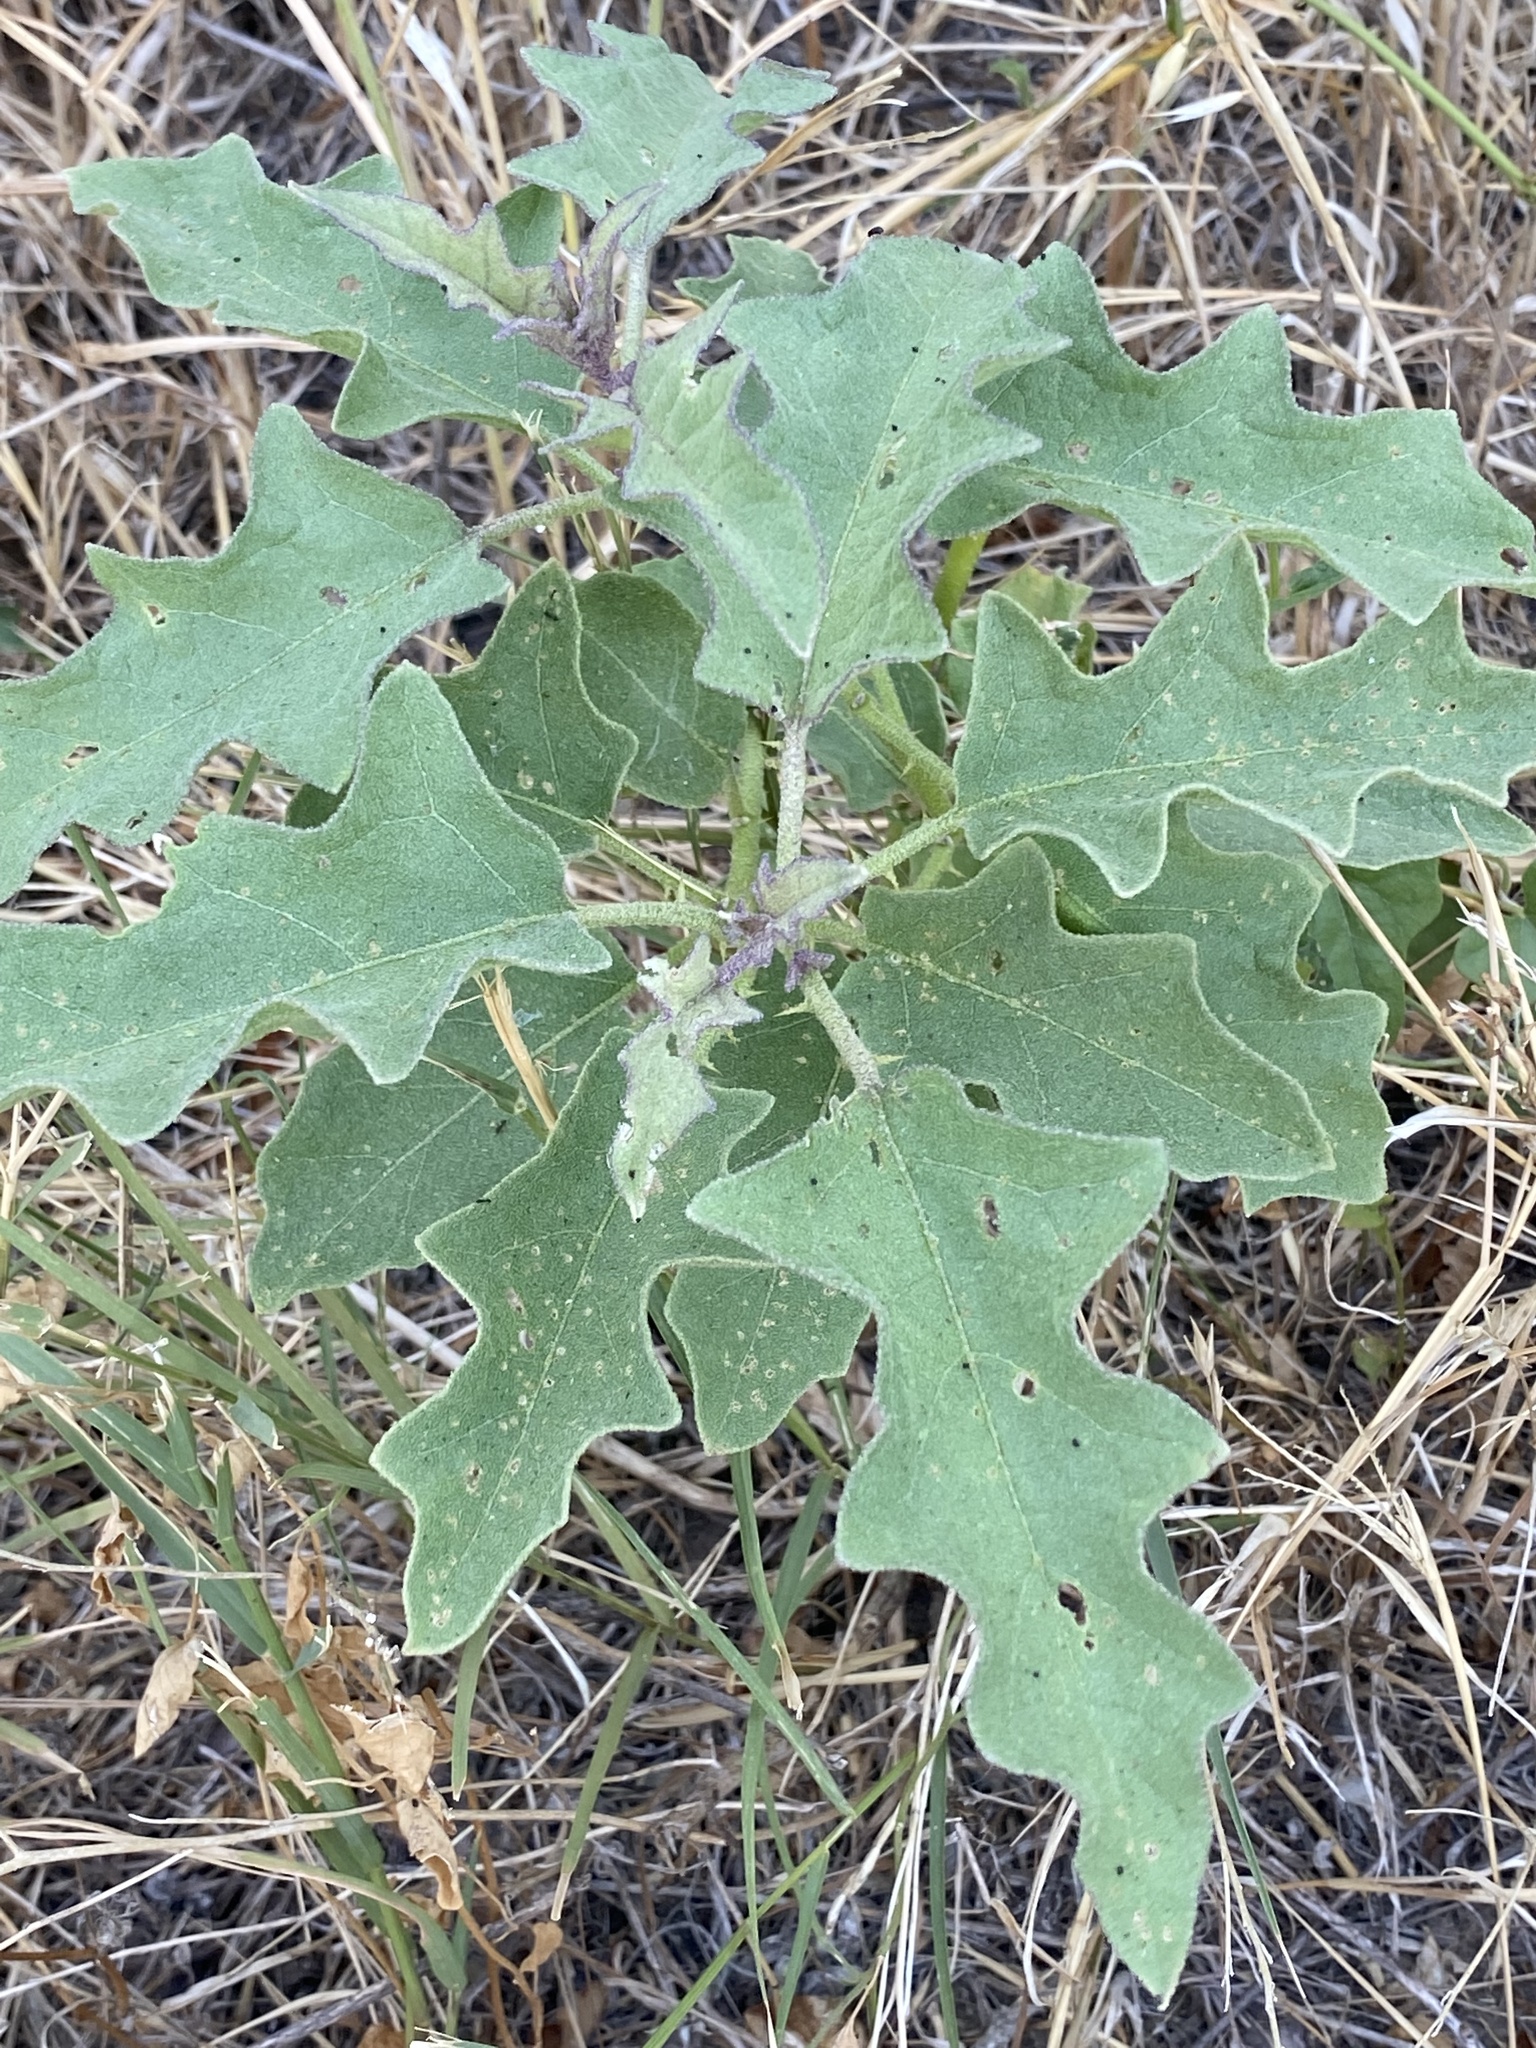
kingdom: Plantae
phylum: Tracheophyta
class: Magnoliopsida
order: Solanales
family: Solanaceae
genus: Solanum
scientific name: Solanum dimidiatum
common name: Carolina horse-nettle
